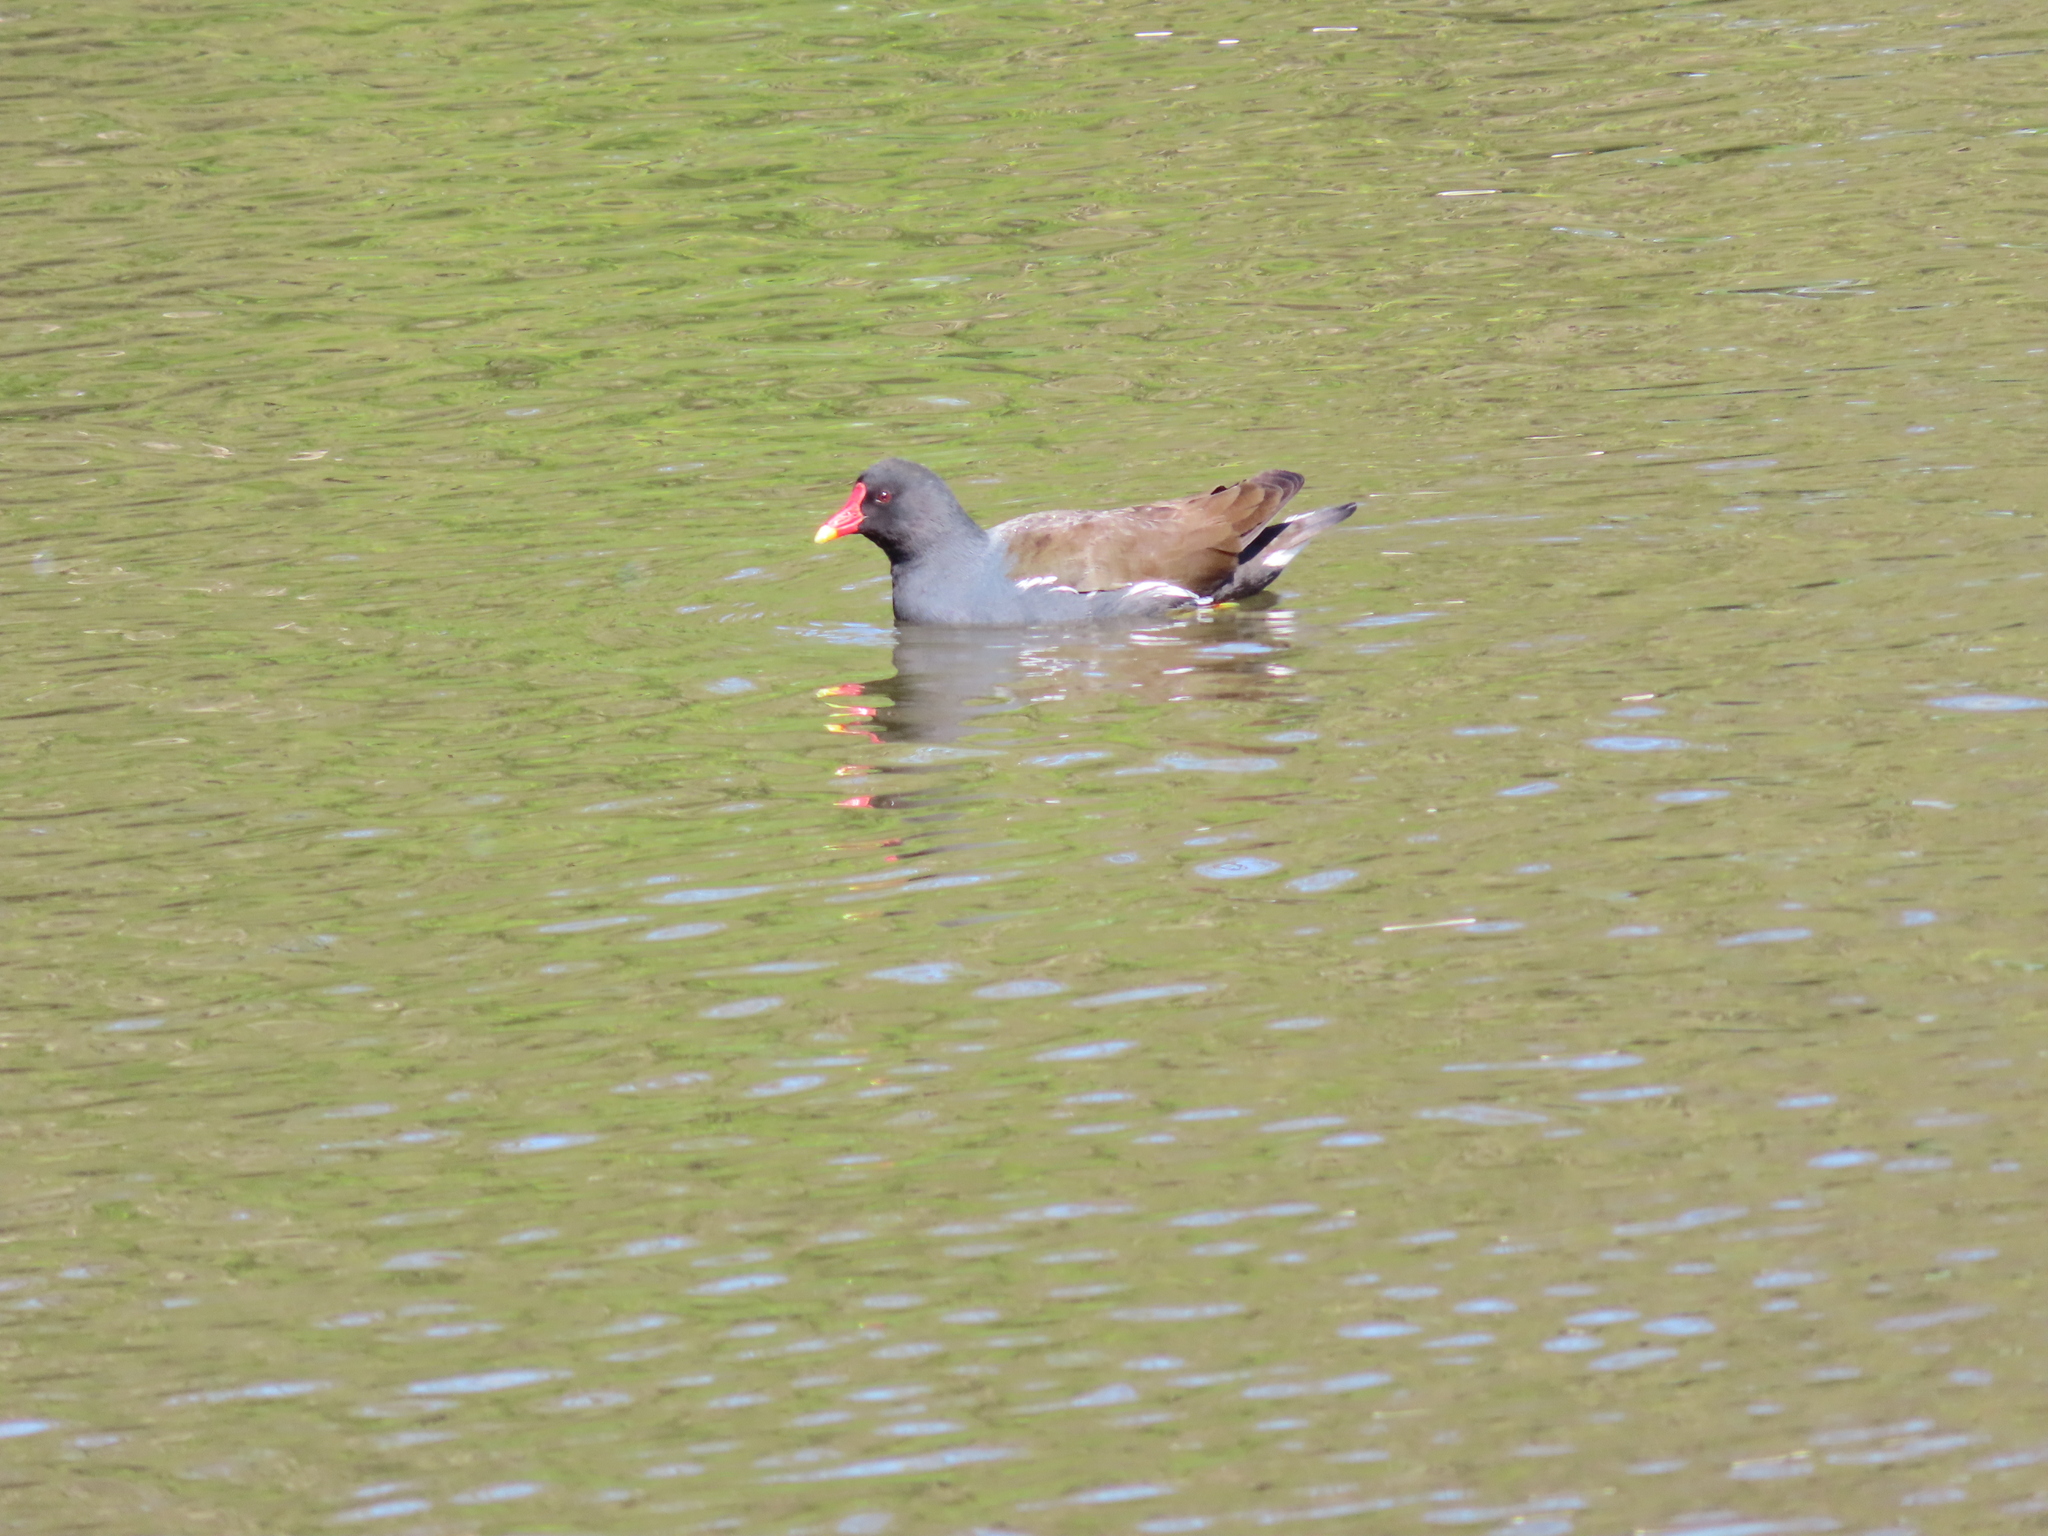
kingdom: Animalia
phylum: Chordata
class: Aves
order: Gruiformes
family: Rallidae
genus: Gallinula
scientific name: Gallinula chloropus
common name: Common moorhen
